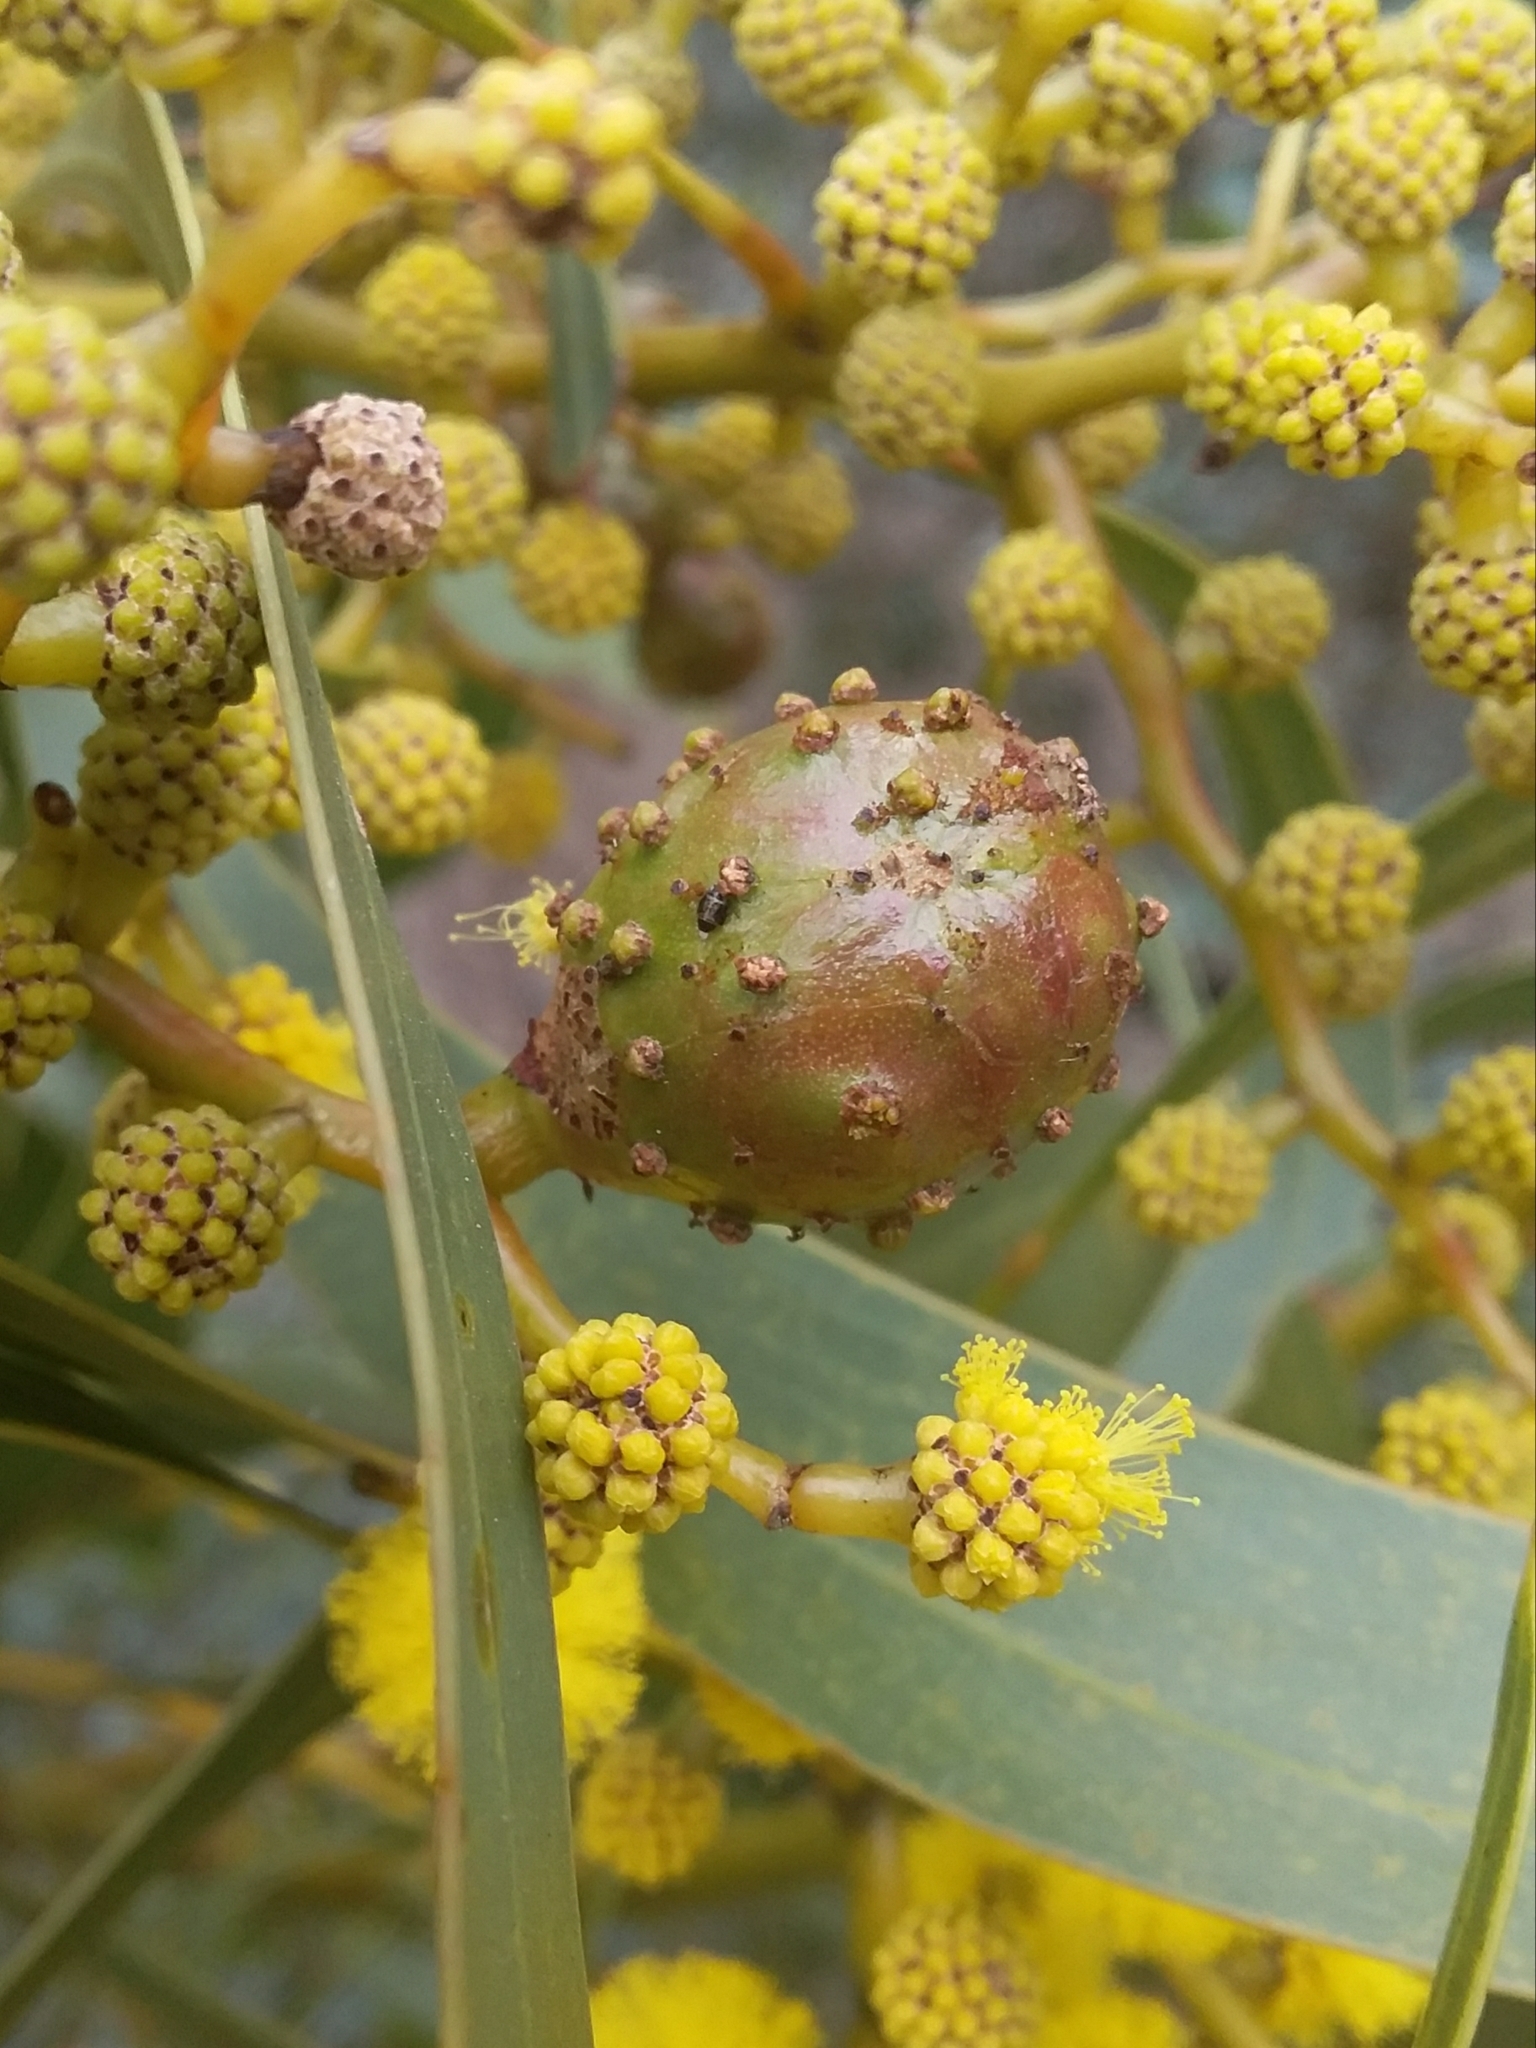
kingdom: Animalia
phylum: Arthropoda
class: Insecta
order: Hymenoptera
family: Pteromalidae
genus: Trichilogaster
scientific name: Trichilogaster signiventris
